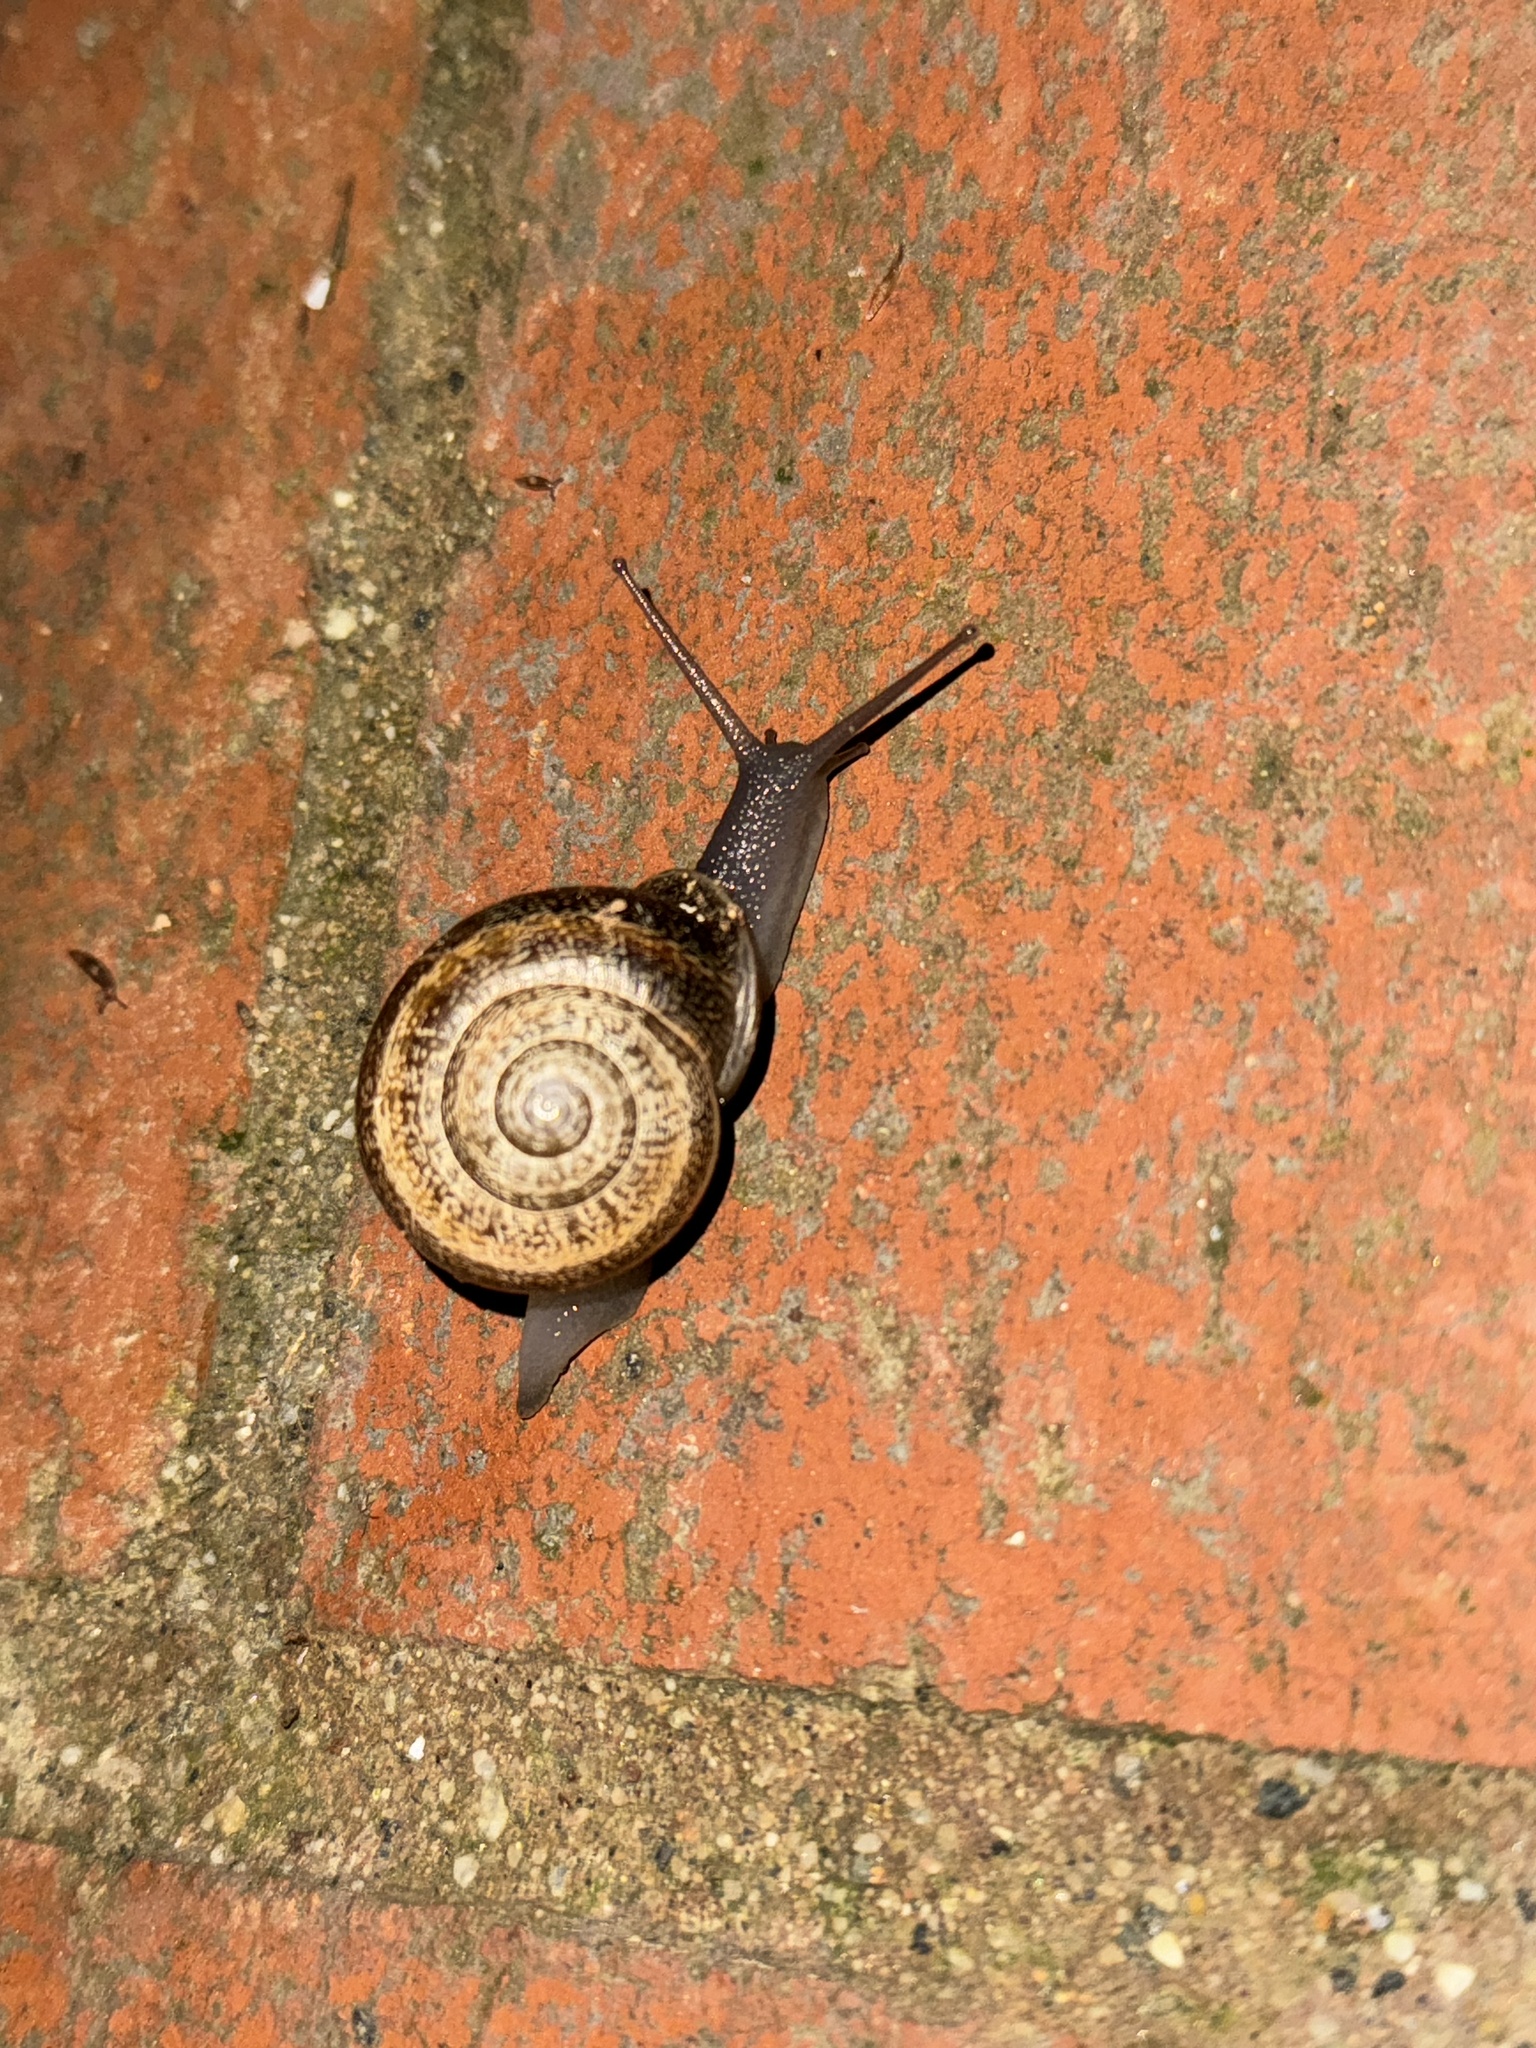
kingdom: Animalia
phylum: Mollusca
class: Gastropoda
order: Stylommatophora
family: Helicidae
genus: Otala
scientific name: Otala lactea
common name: Milk snail
